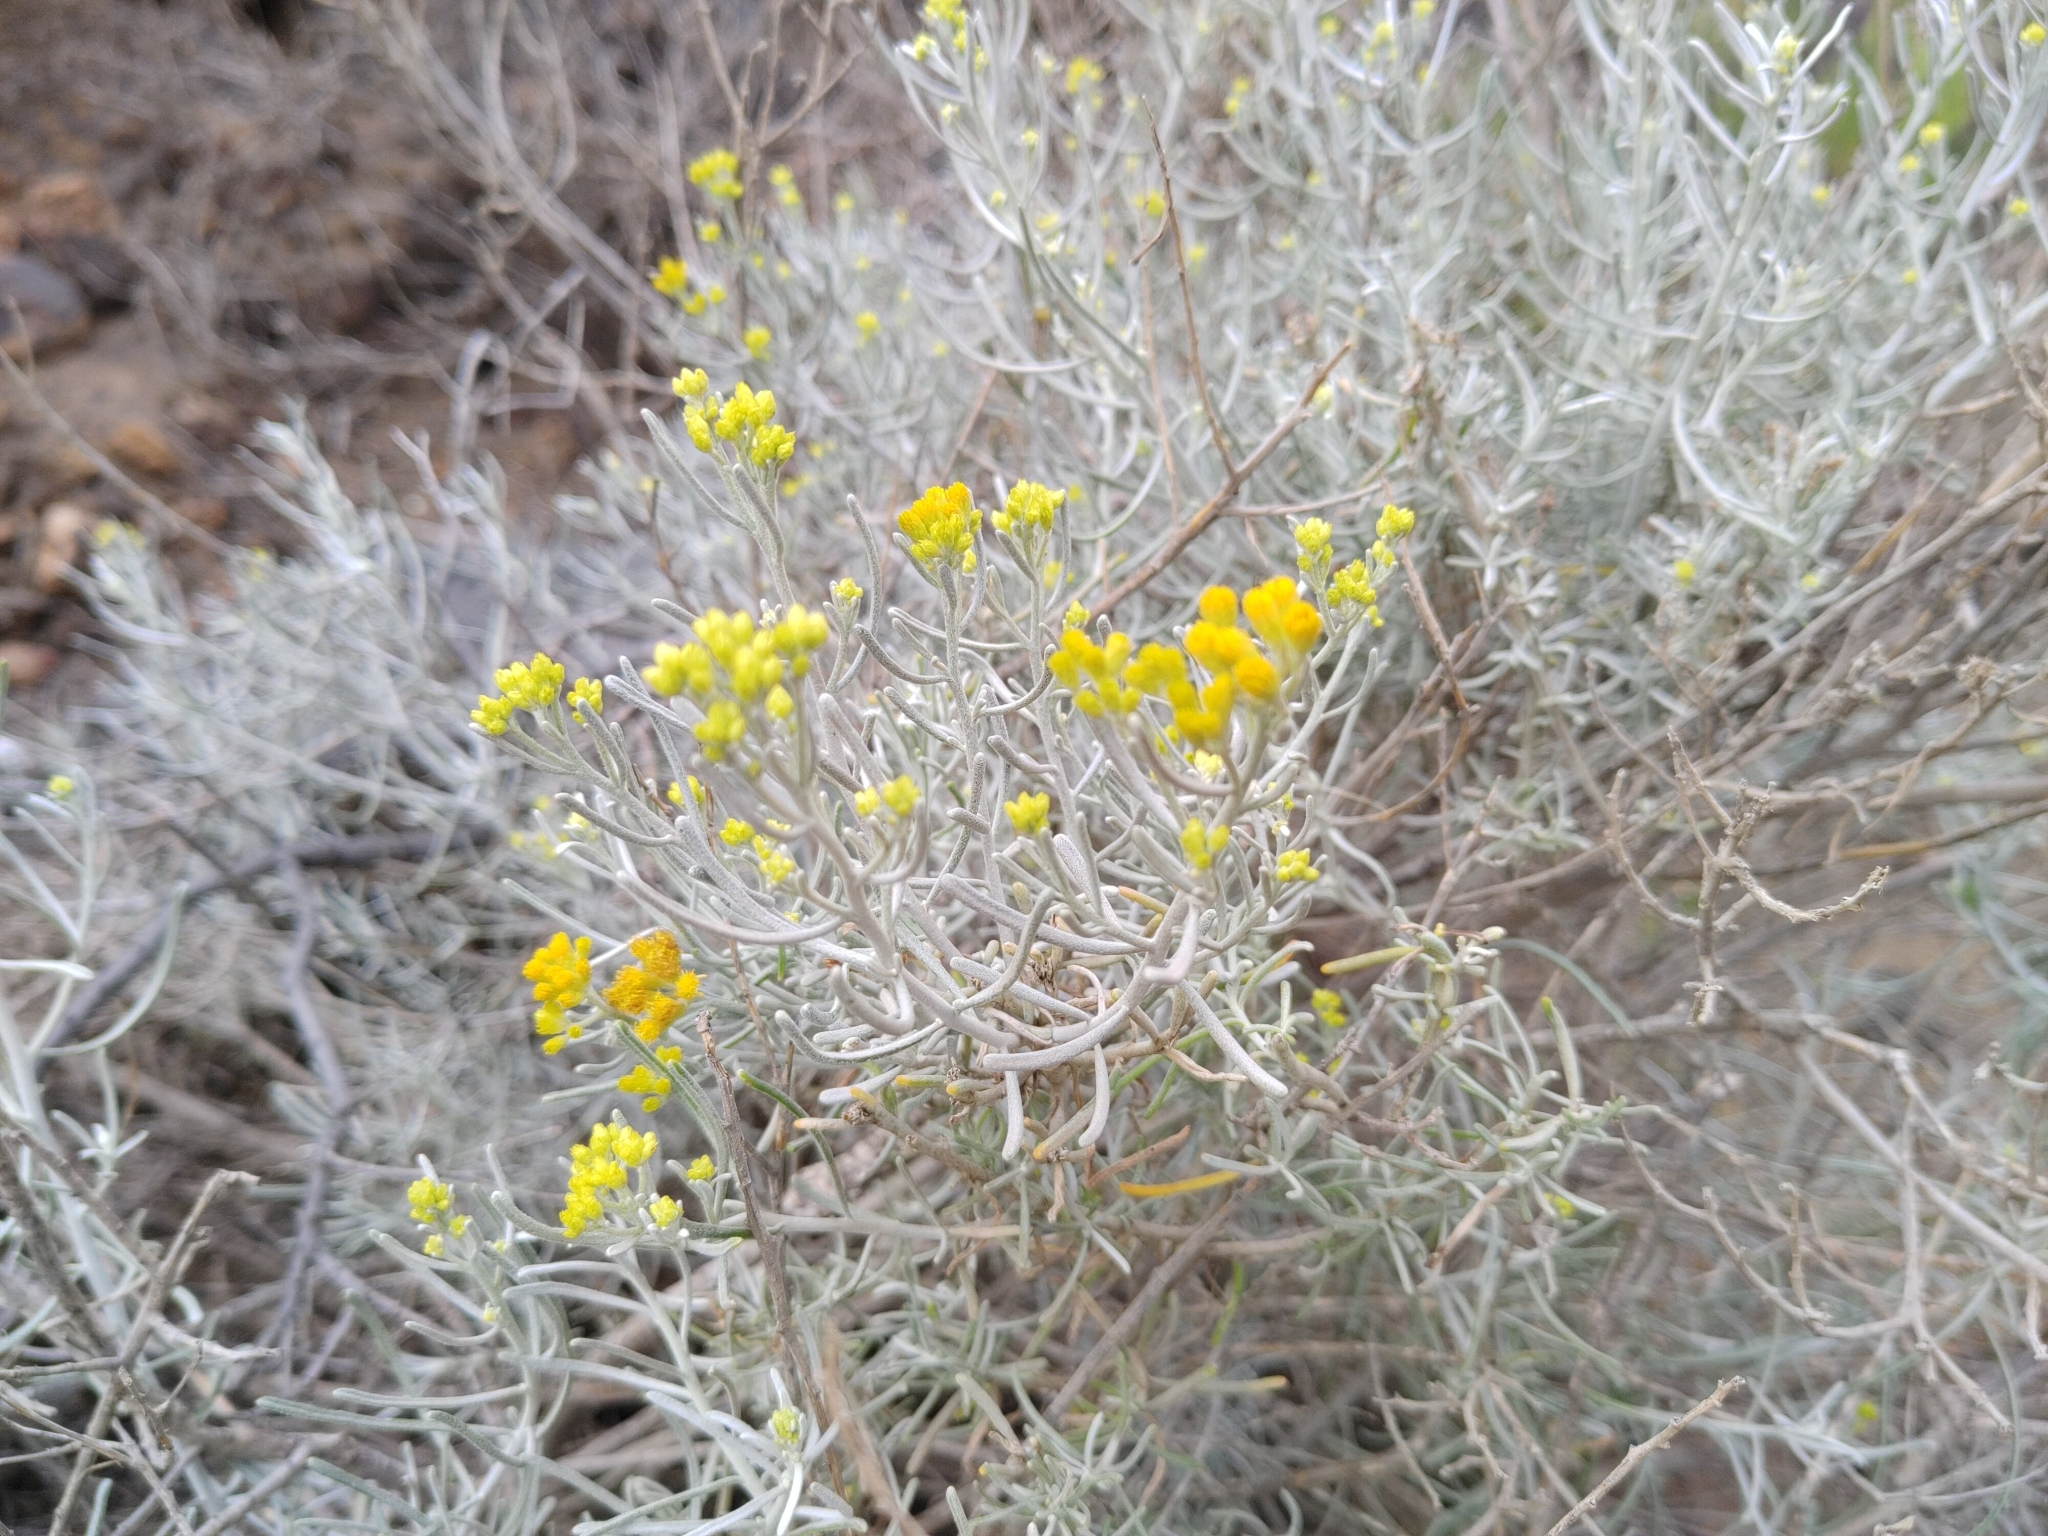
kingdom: Plantae
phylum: Tracheophyta
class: Magnoliopsida
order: Asterales
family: Asteraceae
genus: Schizogyne
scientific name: Schizogyne sericea
